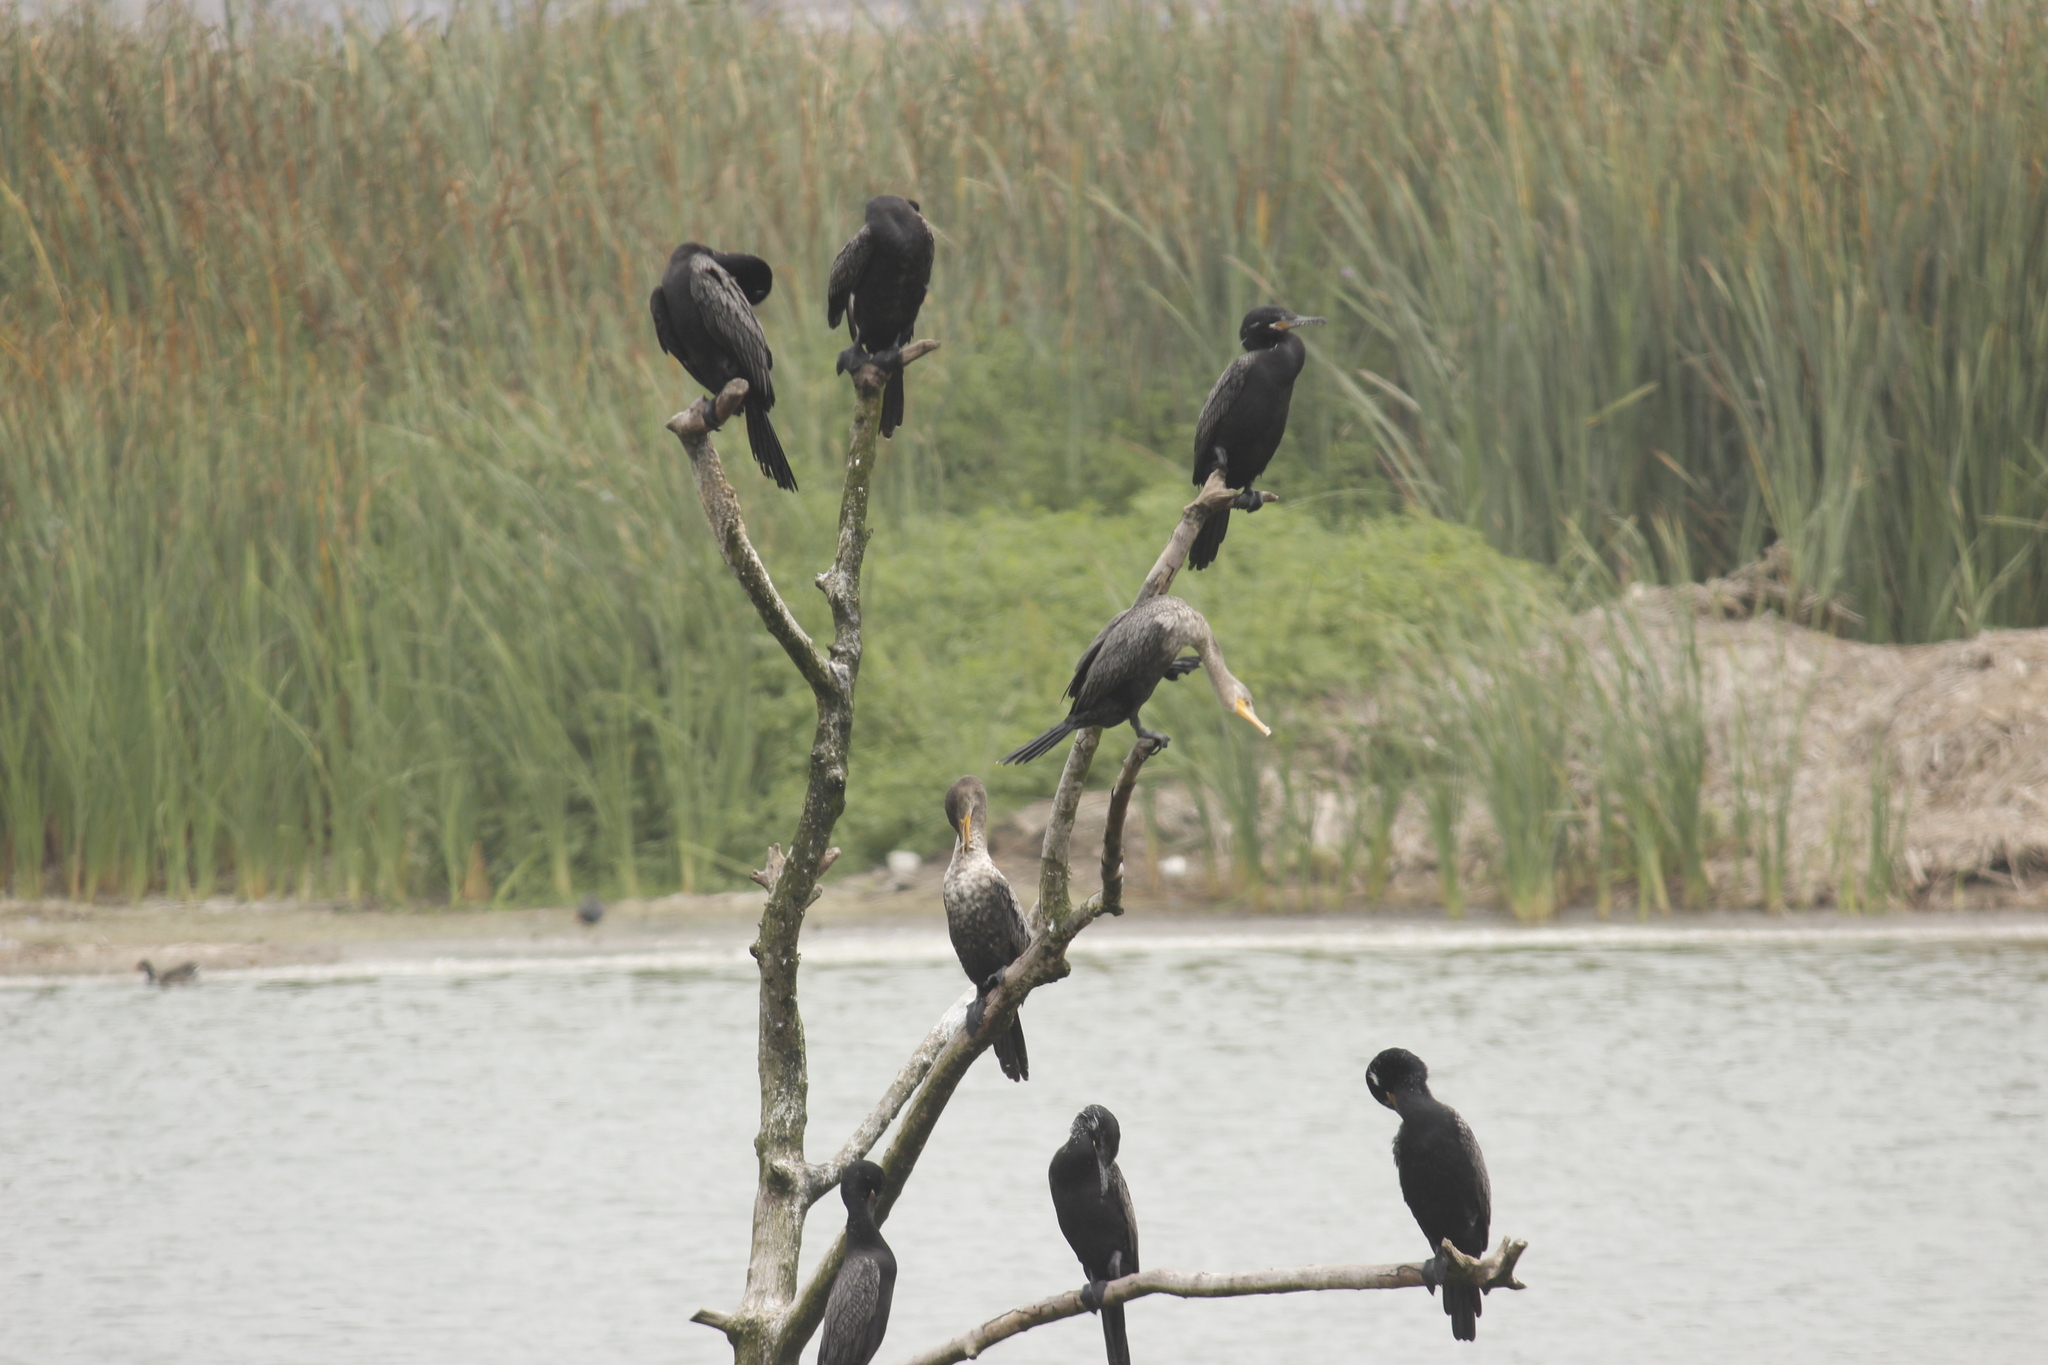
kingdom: Animalia
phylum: Chordata
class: Aves
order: Suliformes
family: Phalacrocoracidae
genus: Phalacrocorax
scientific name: Phalacrocorax brasilianus
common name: Neotropic cormorant
